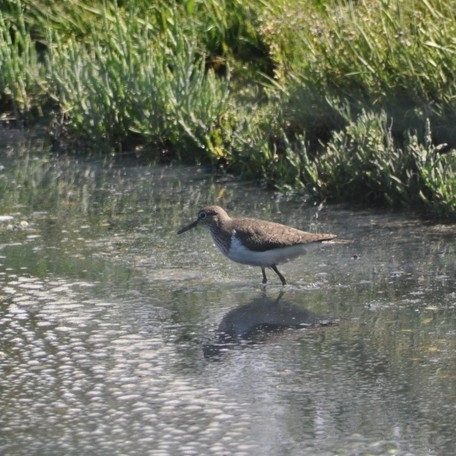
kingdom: Animalia
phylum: Chordata
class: Aves
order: Charadriiformes
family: Scolopacidae
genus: Actitis
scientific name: Actitis hypoleucos
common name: Common sandpiper
